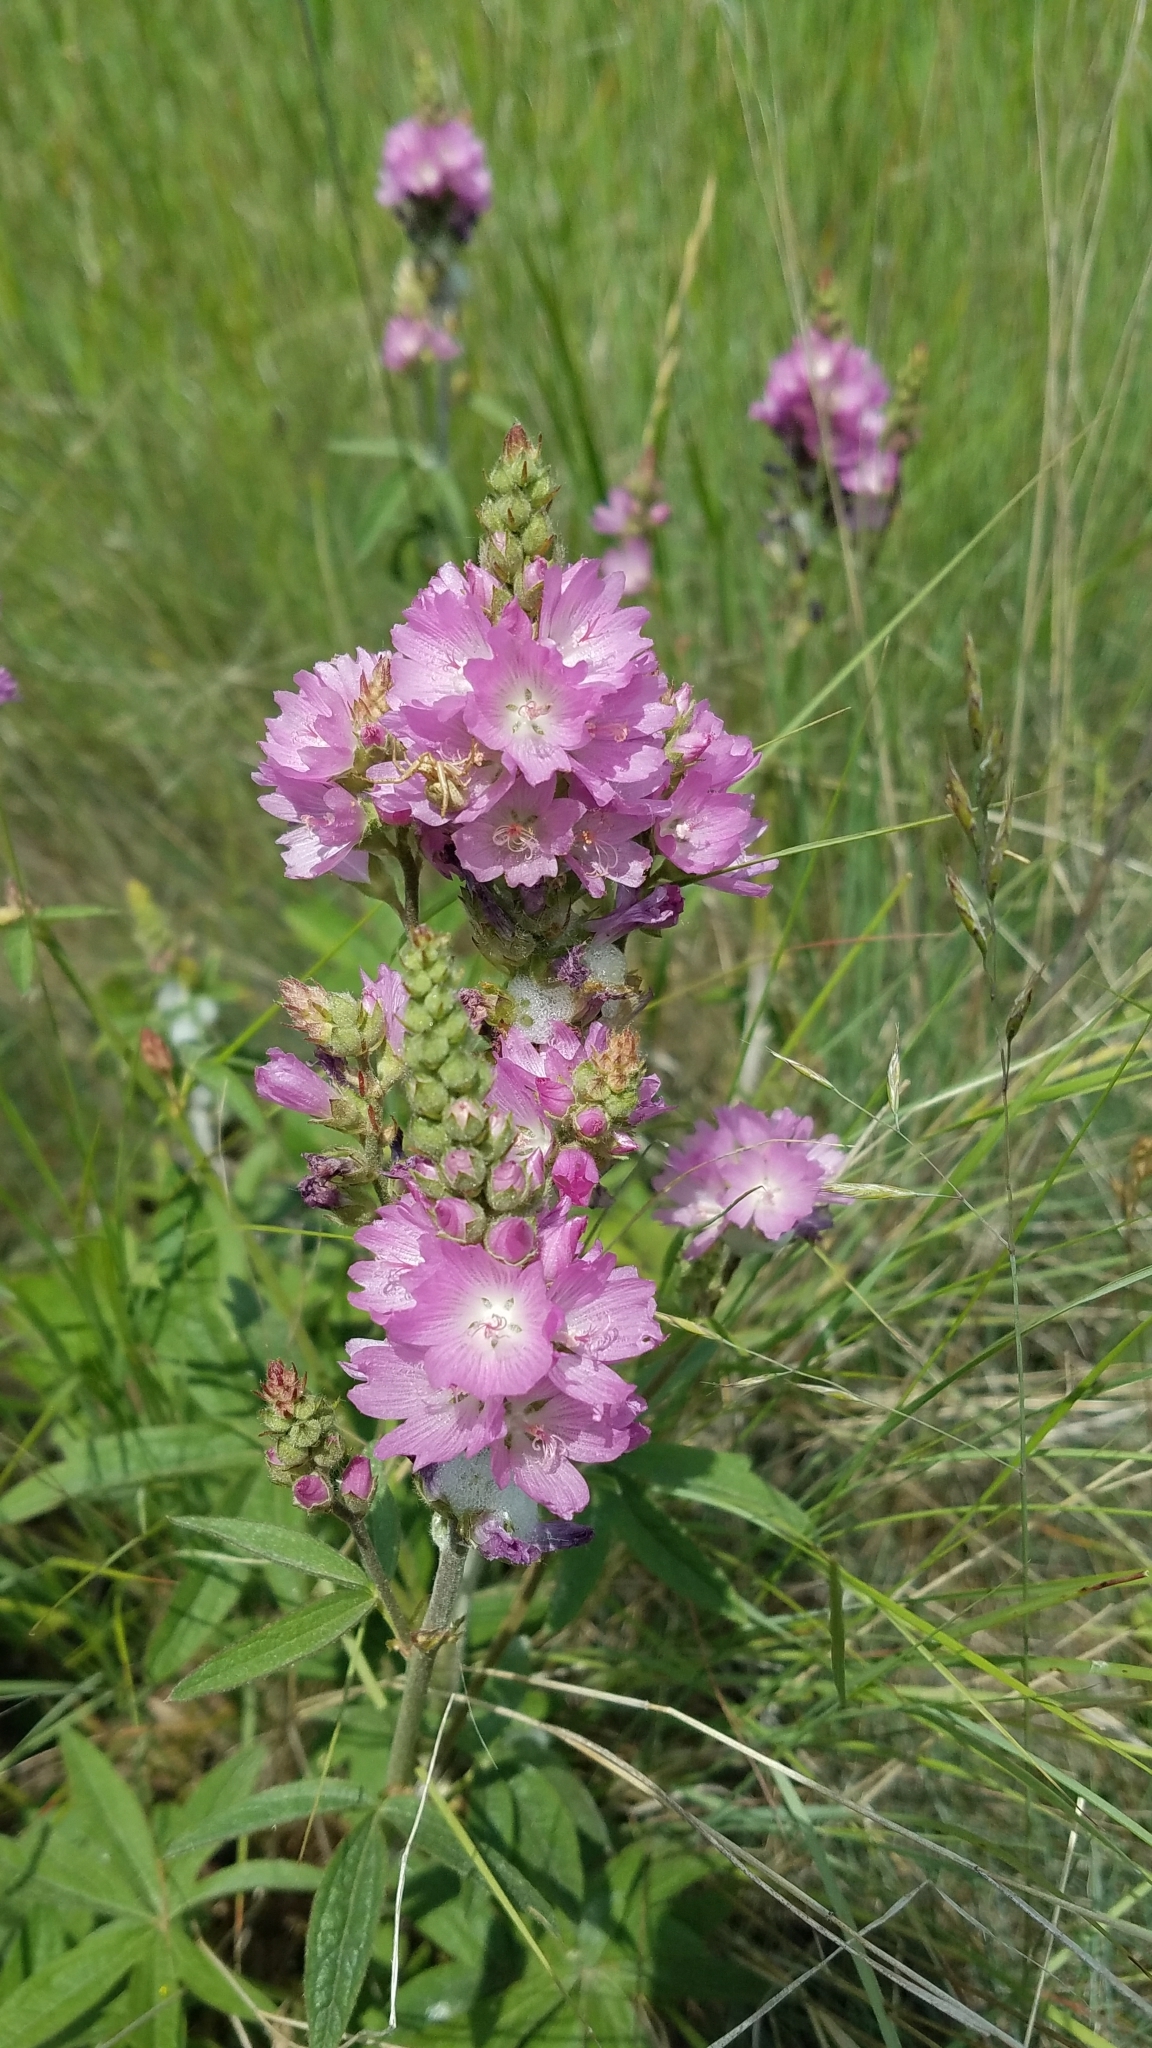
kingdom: Plantae
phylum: Tracheophyta
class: Magnoliopsida
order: Malvales
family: Malvaceae
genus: Sidalcea
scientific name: Sidalcea oregana
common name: Oregon checker-mallow
